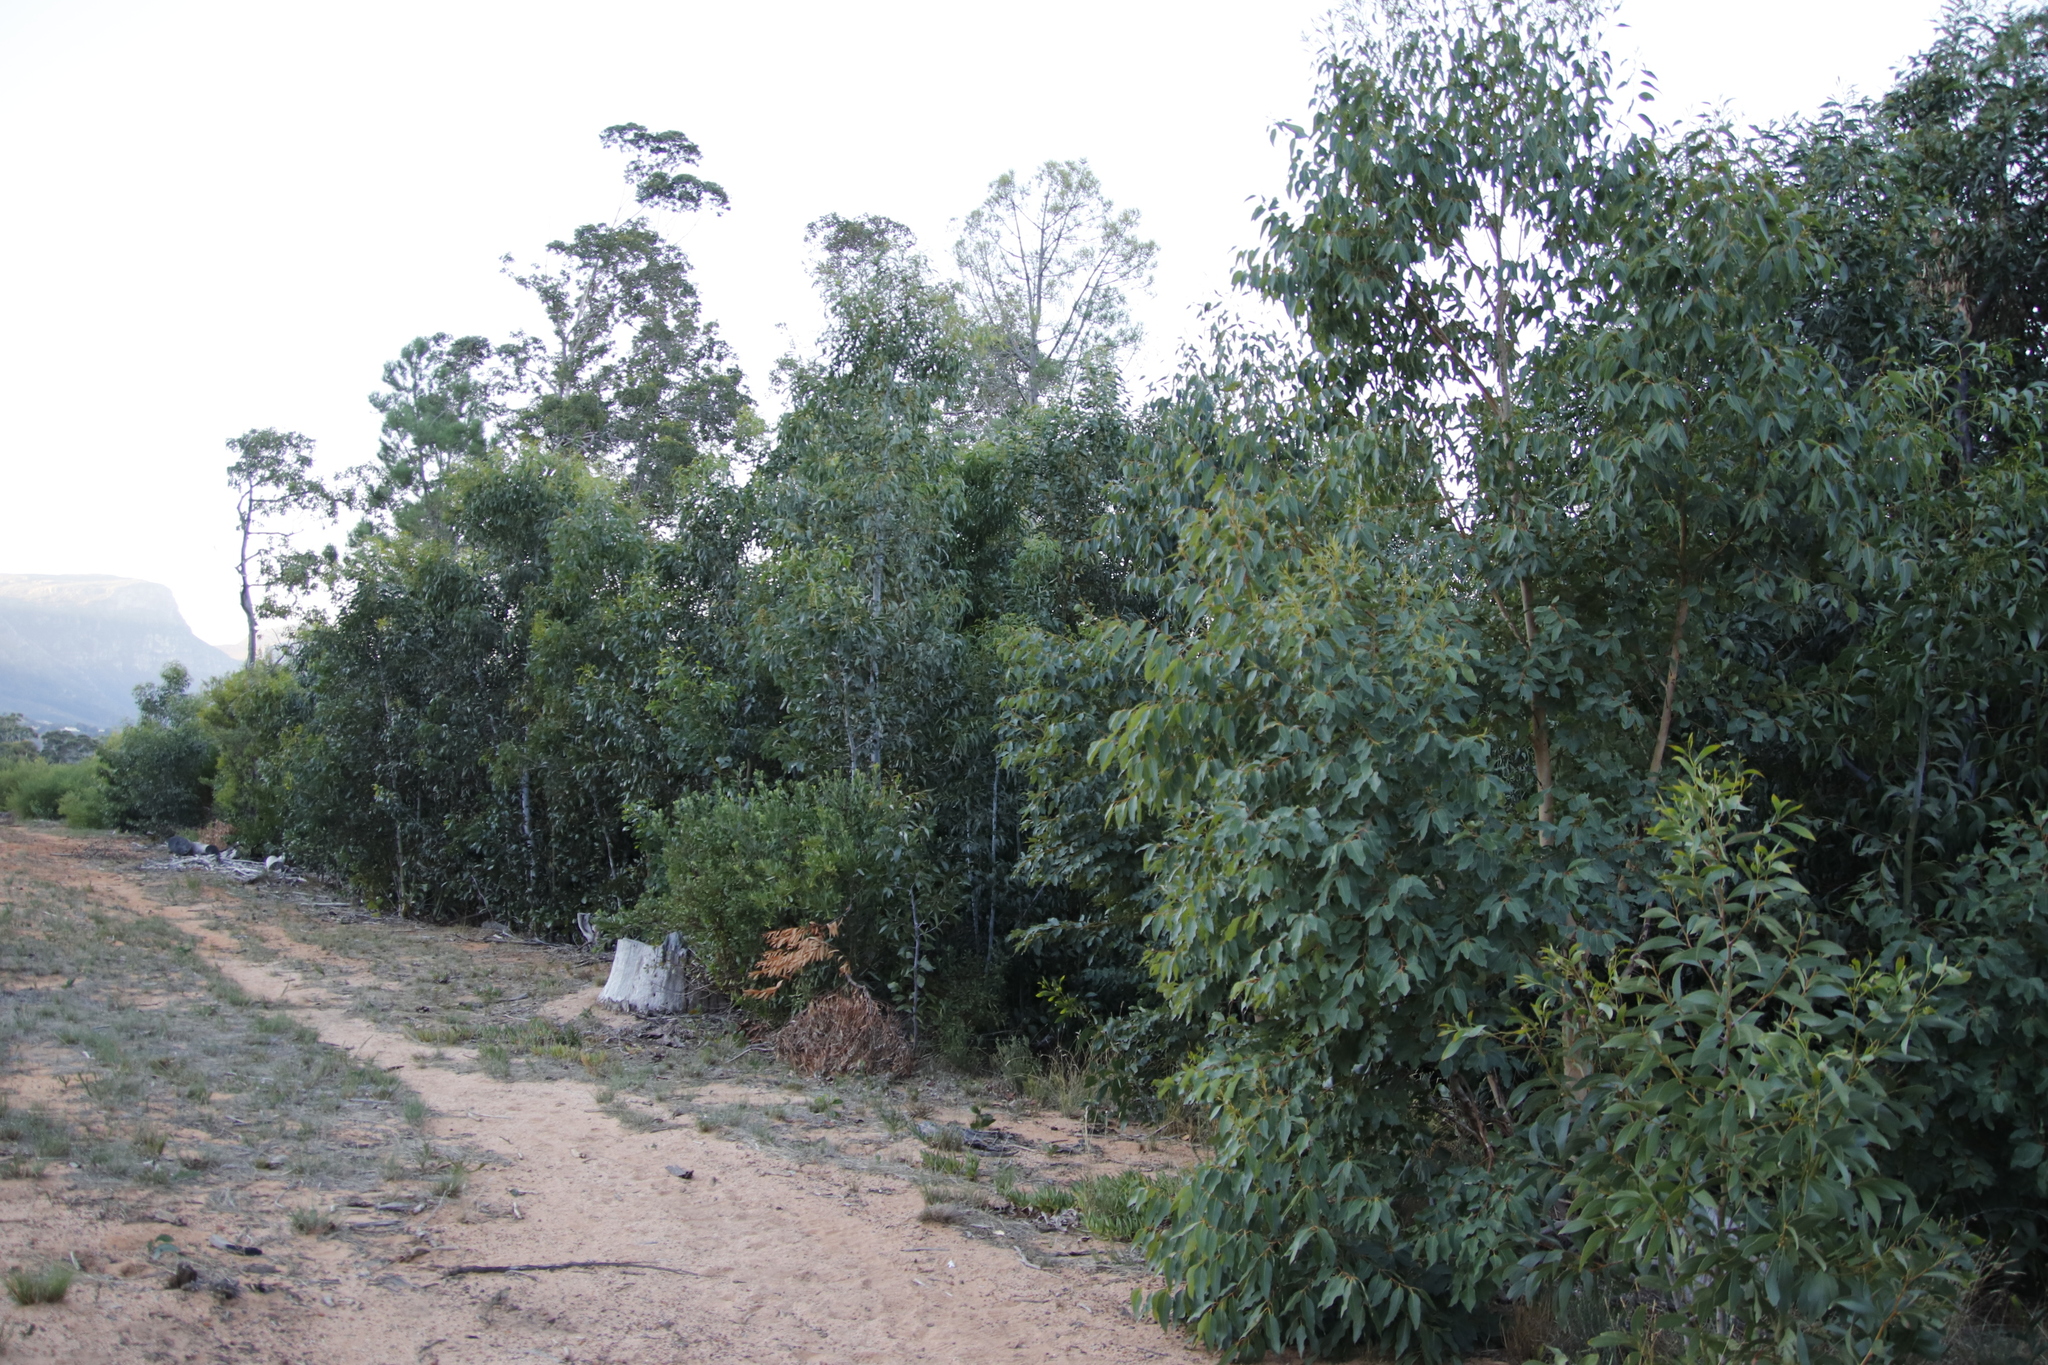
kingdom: Plantae
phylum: Tracheophyta
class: Magnoliopsida
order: Fabales
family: Fabaceae
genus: Acacia
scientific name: Acacia pycnantha
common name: Golden wattle
